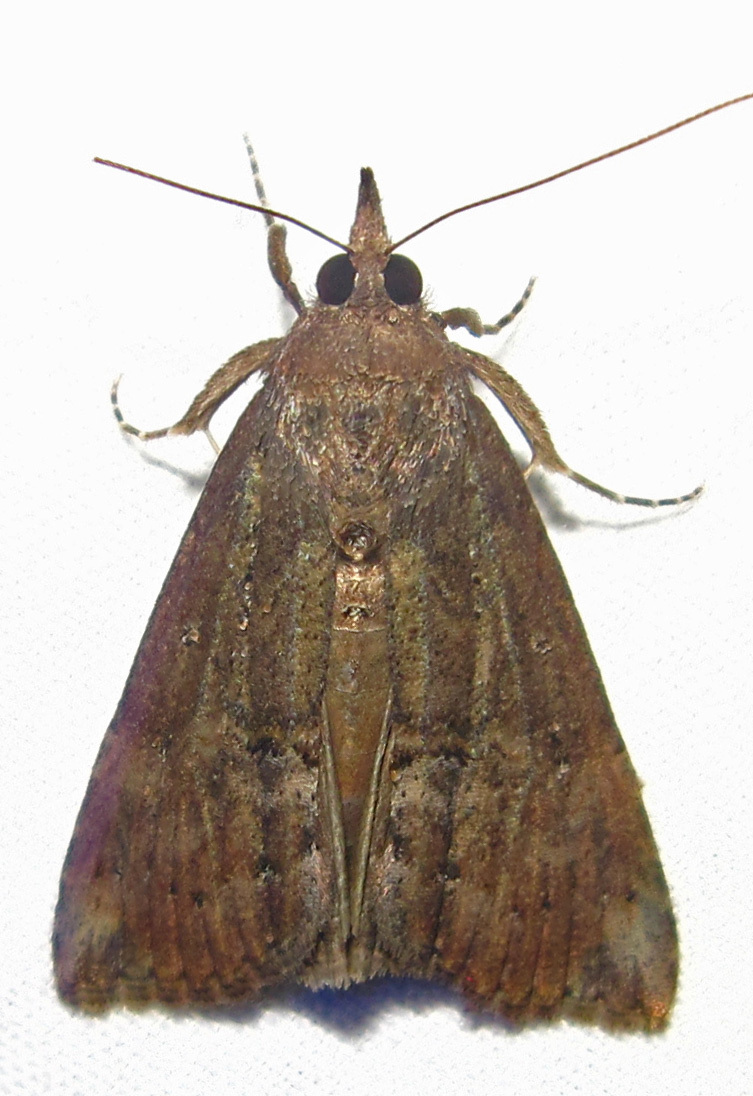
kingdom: Animalia
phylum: Arthropoda
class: Insecta
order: Lepidoptera
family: Erebidae
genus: Hypena
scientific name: Hypena scabra
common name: Green cloverworm
